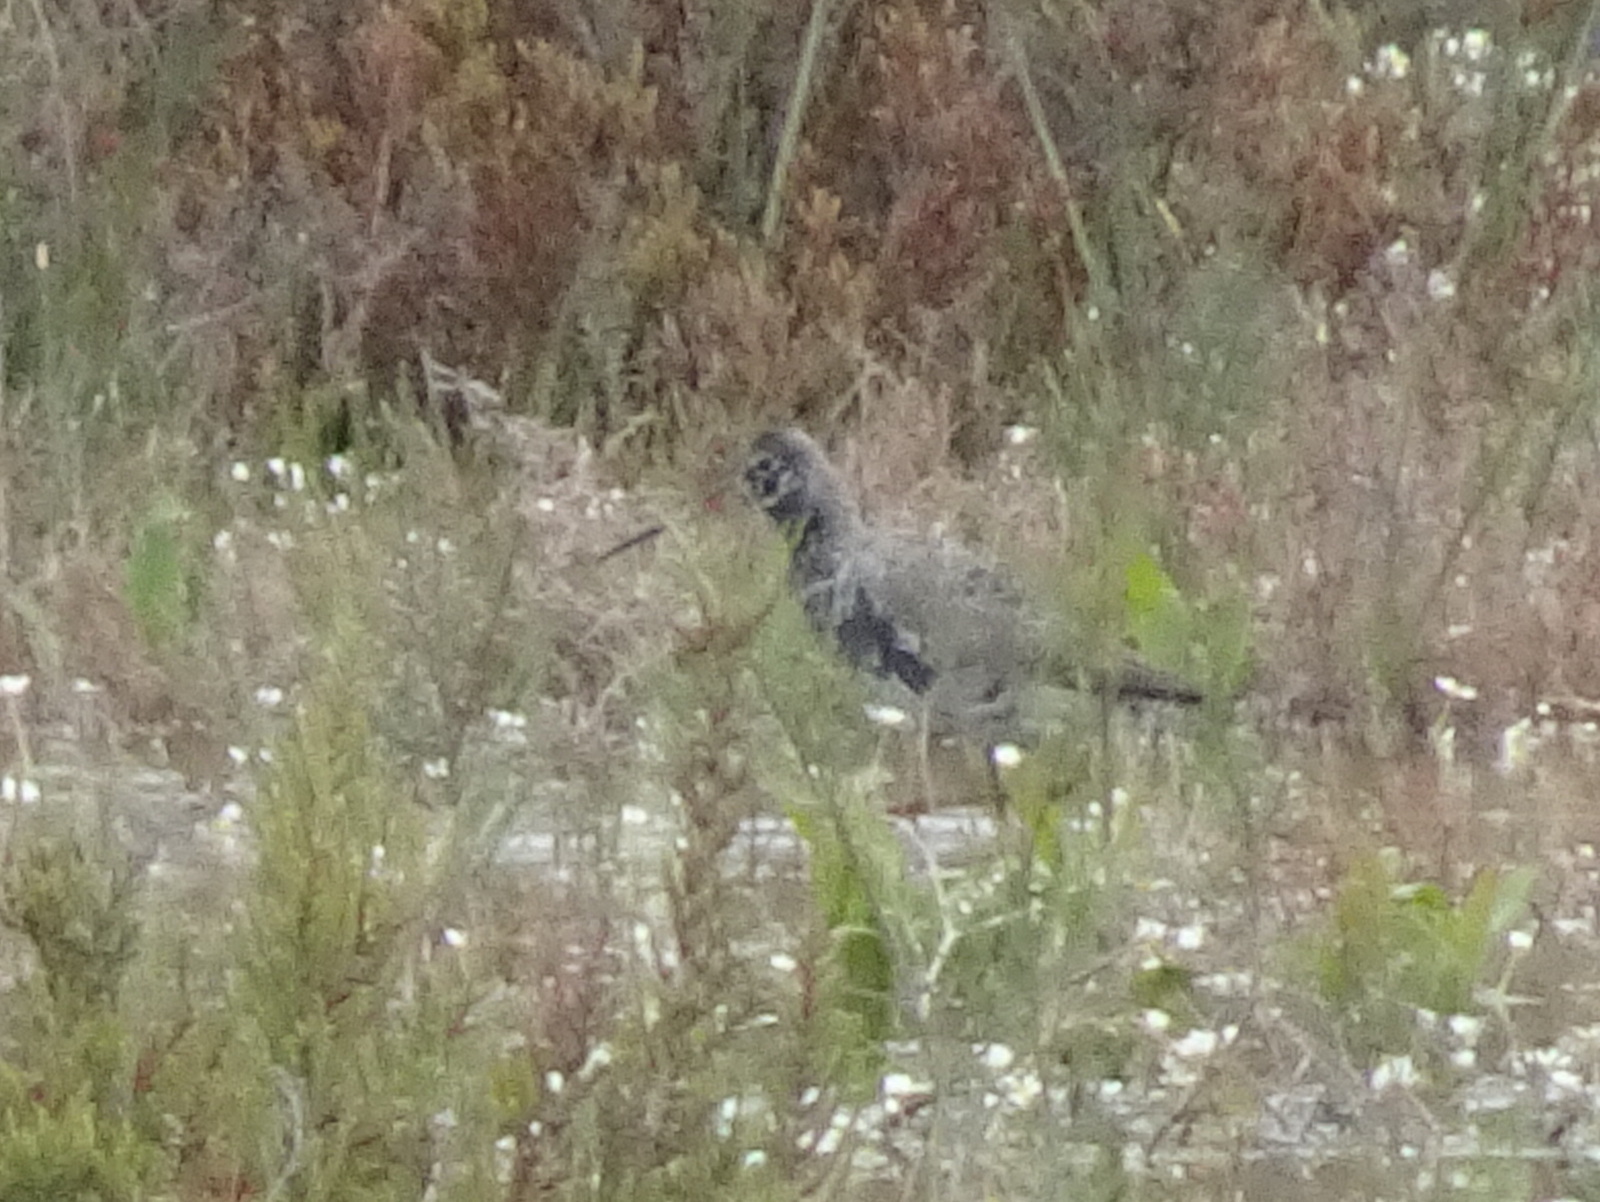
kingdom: Animalia
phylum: Chordata
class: Aves
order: Charadriiformes
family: Scolopacidae
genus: Tringa
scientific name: Tringa erythropus
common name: Spotted redshank
